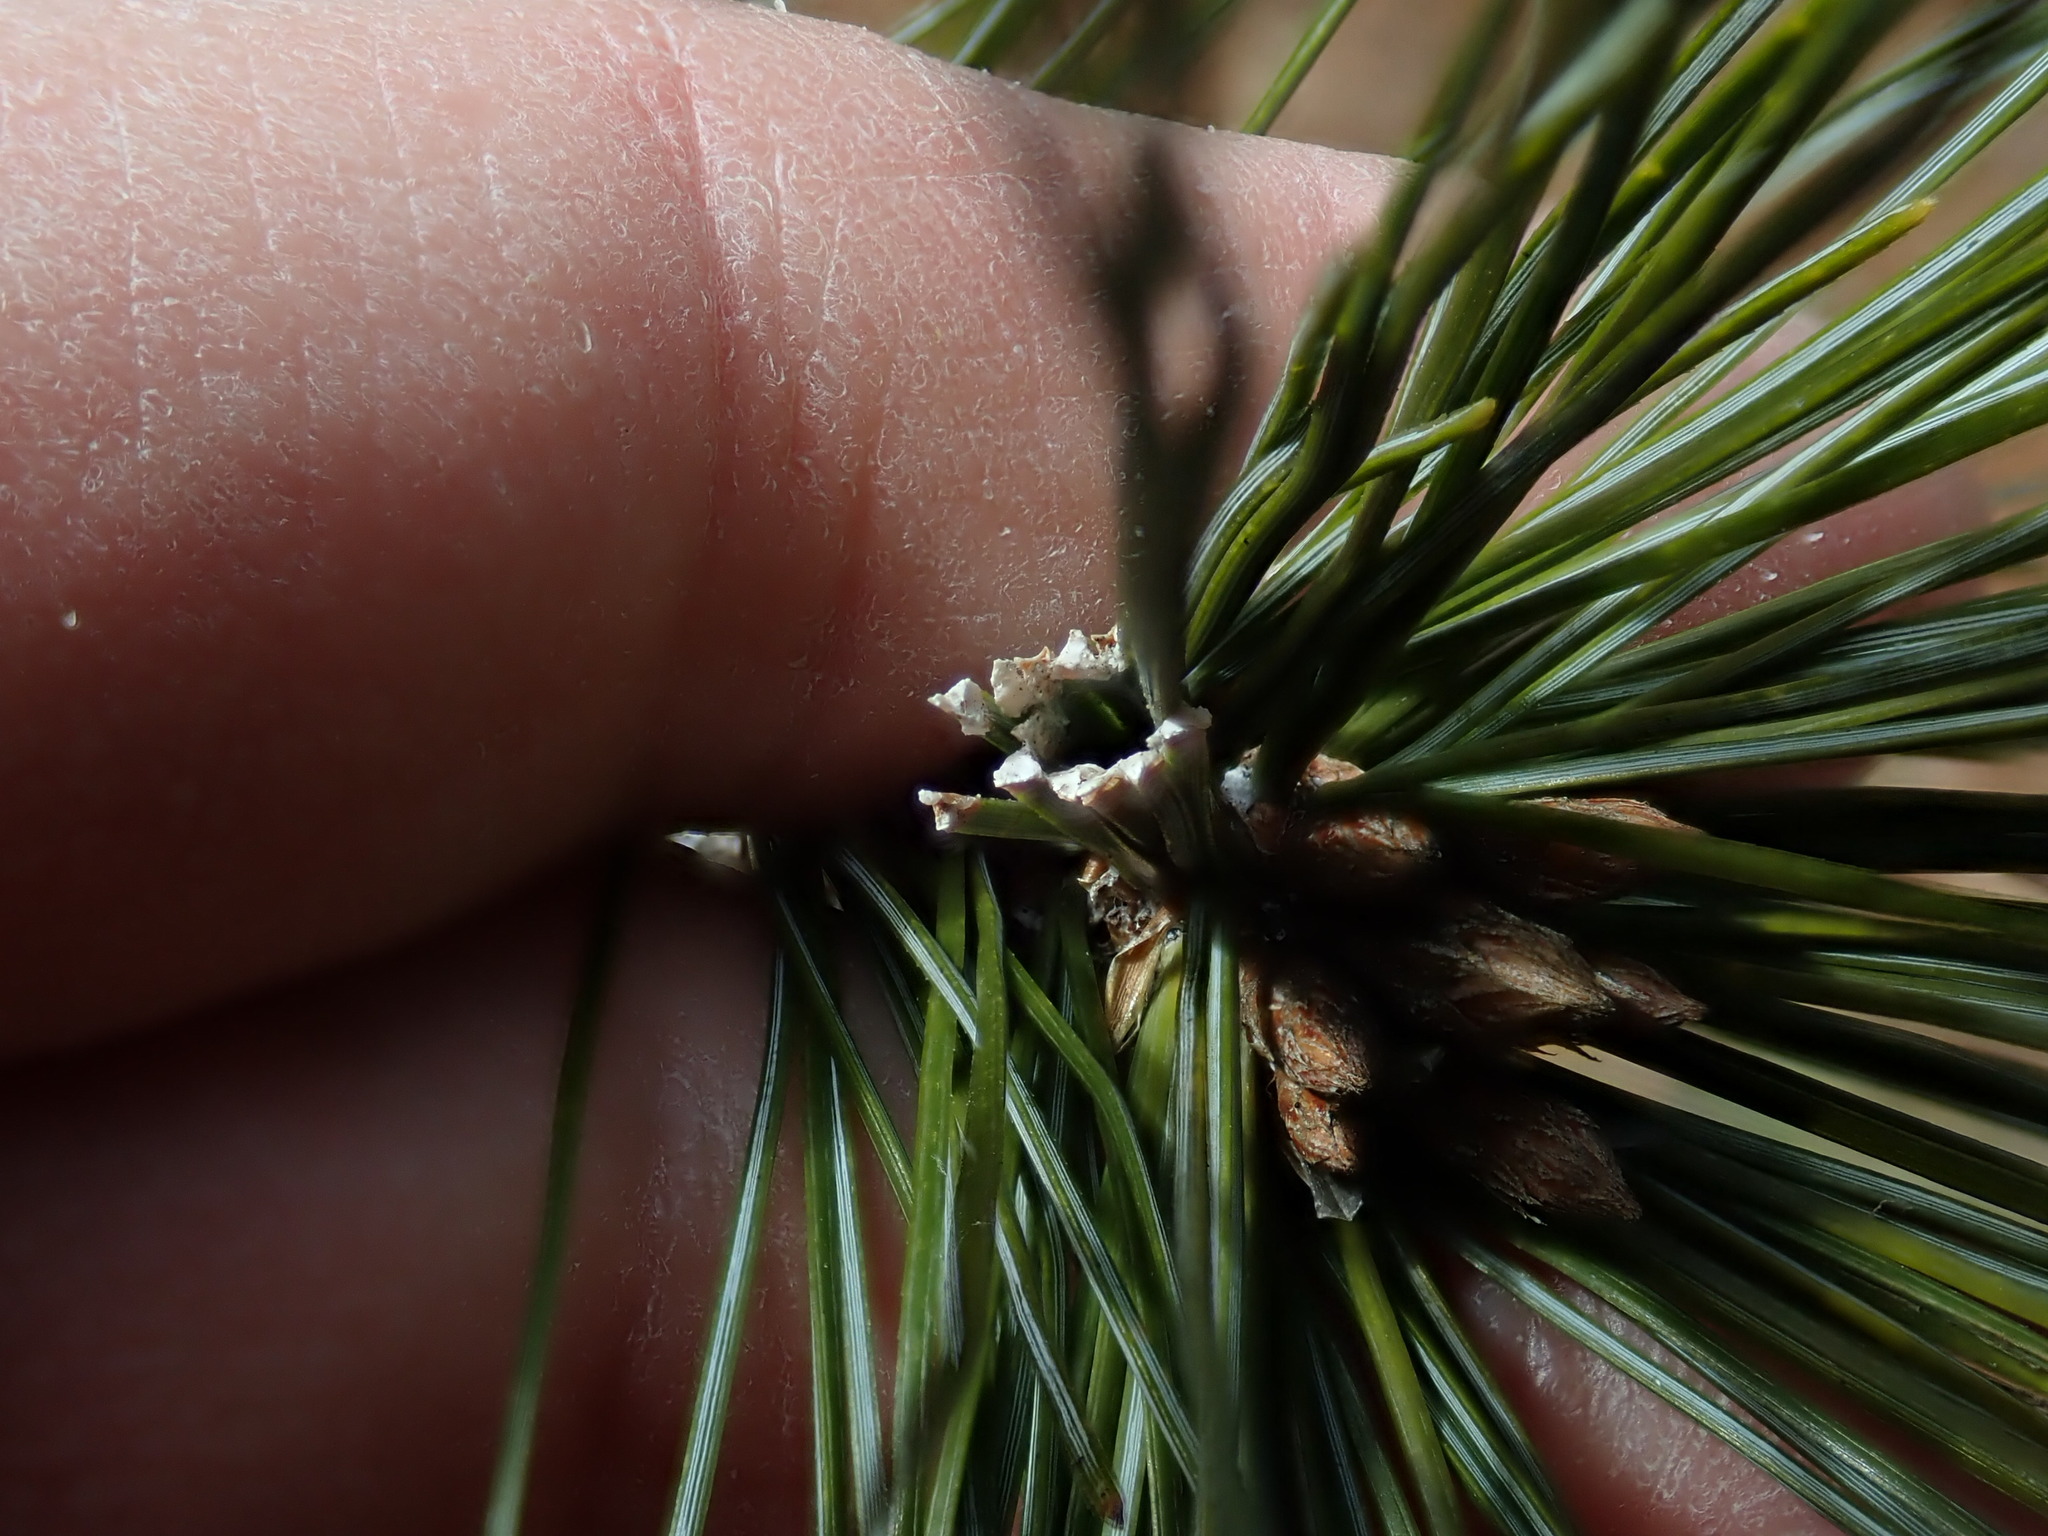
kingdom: Animalia
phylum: Arthropoda
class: Insecta
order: Lepidoptera
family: Tortricidae
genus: Argyrotaenia
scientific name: Argyrotaenia pinatubana
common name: Pine tube moth
